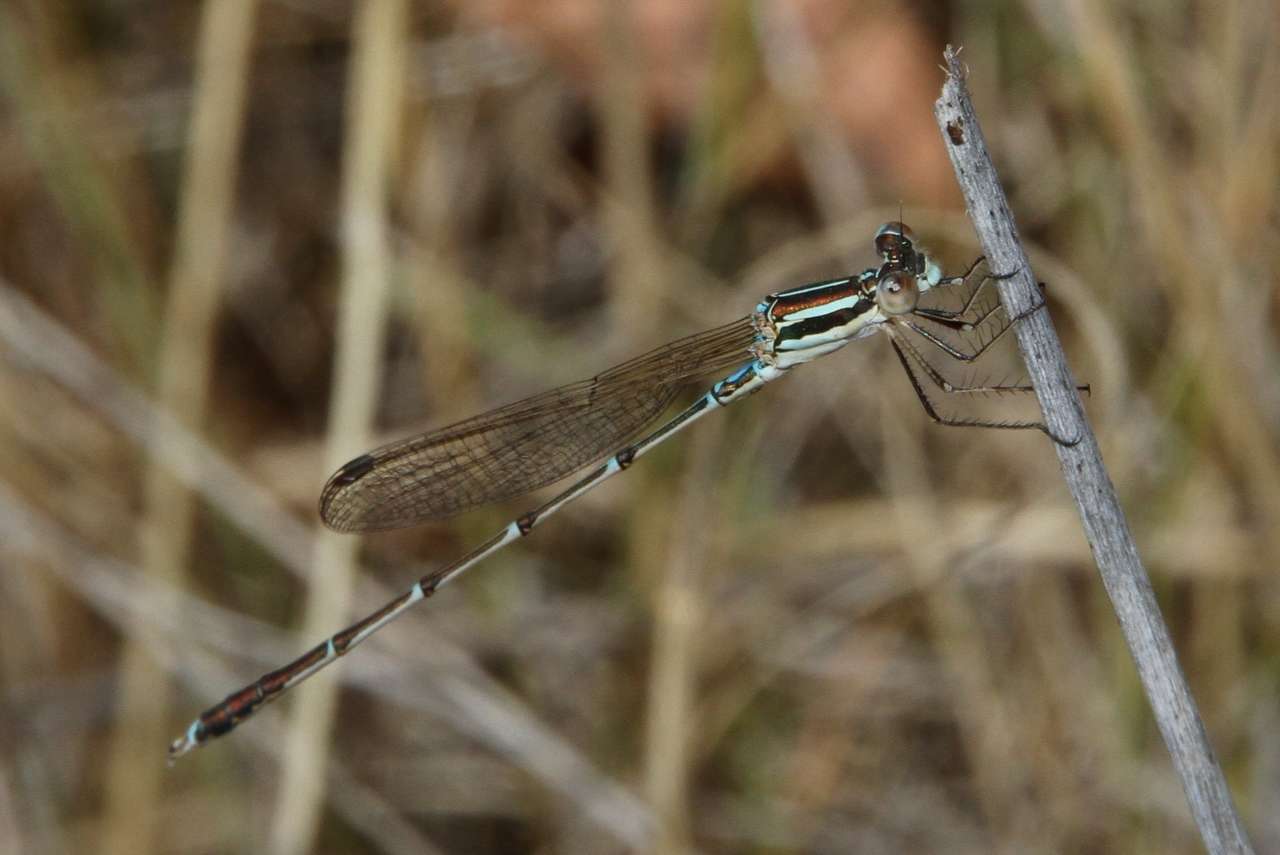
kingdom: Animalia
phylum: Arthropoda
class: Insecta
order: Odonata
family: Lestidae
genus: Austrolestes
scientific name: Austrolestes analis
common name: Slender ringtail
